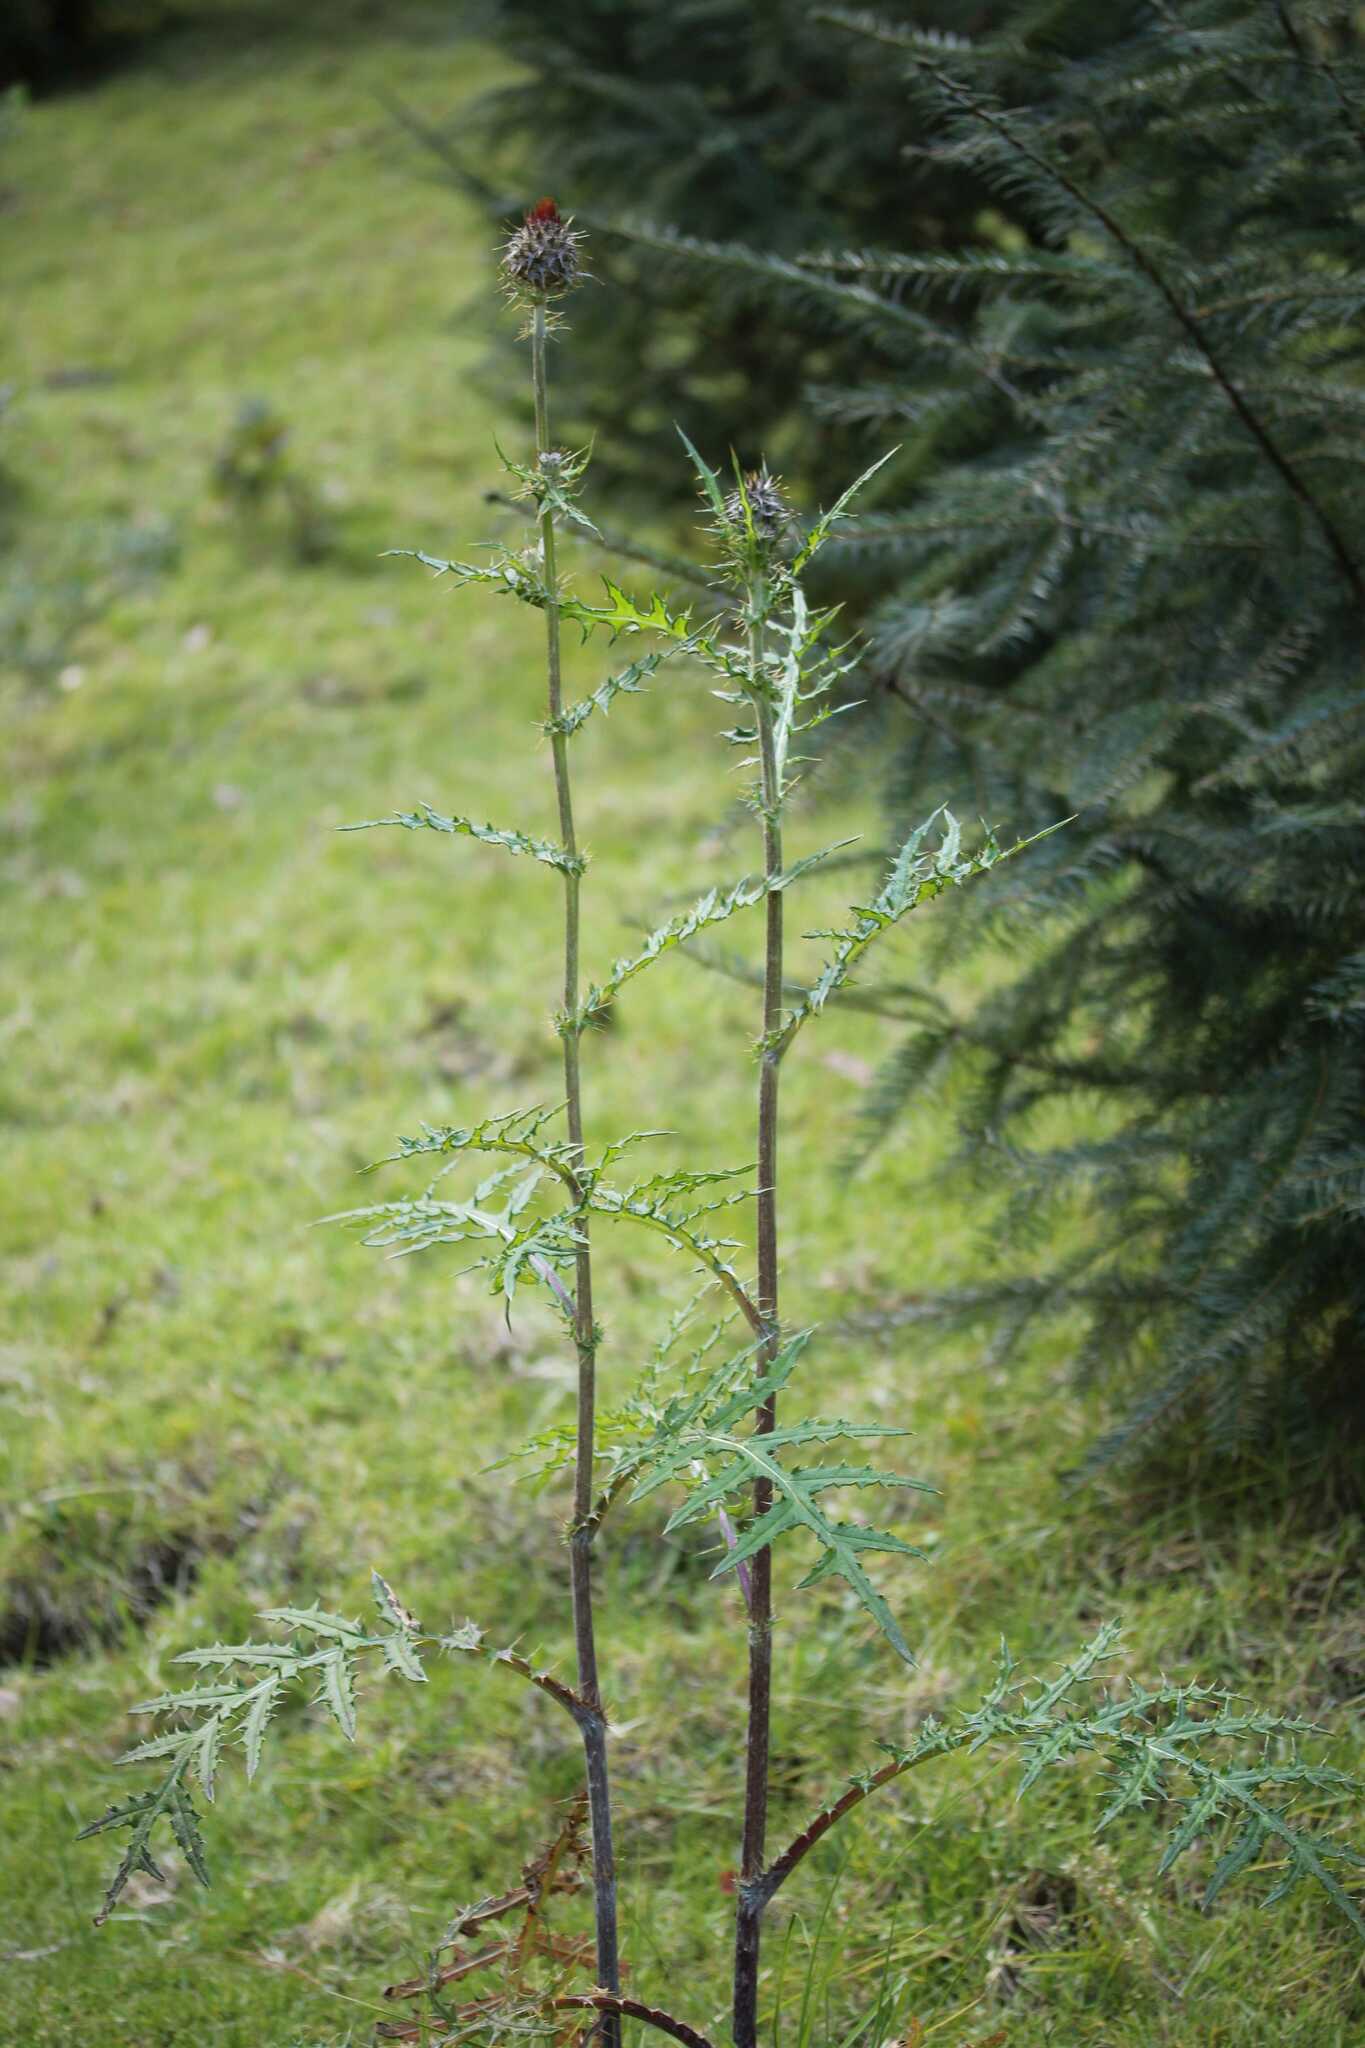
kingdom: Plantae
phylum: Tracheophyta
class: Magnoliopsida
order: Asterales
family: Asteraceae
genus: Cirsium
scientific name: Cirsium ehrenbergii
